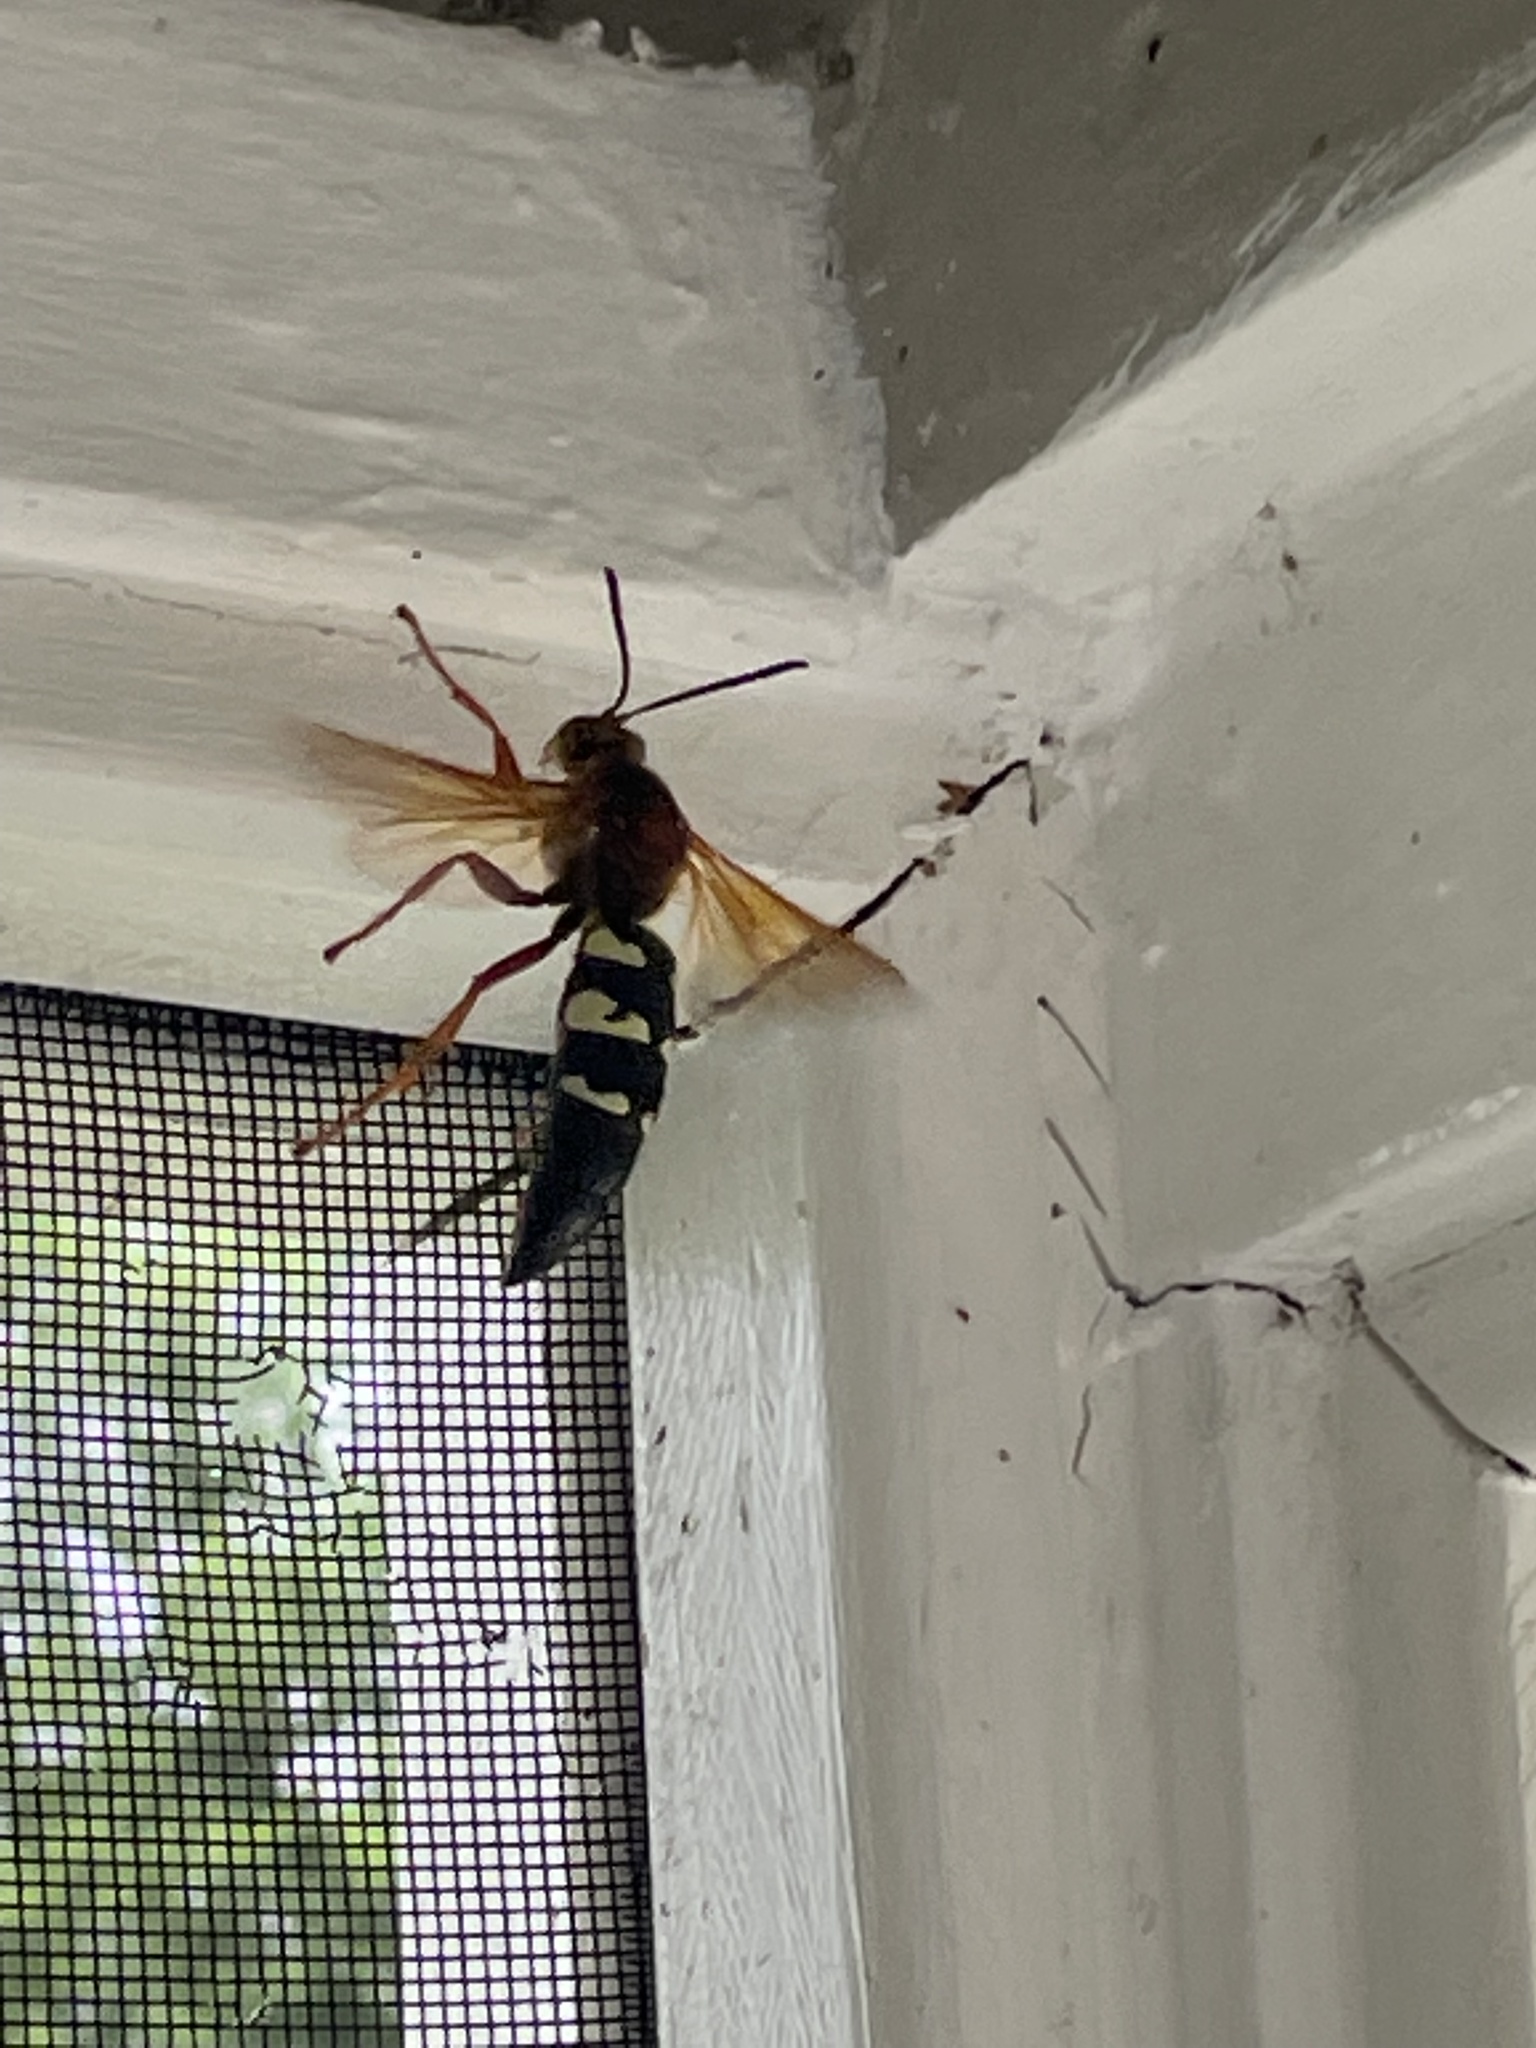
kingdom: Animalia
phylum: Arthropoda
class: Insecta
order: Hymenoptera
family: Crabronidae
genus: Sphecius
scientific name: Sphecius speciosus
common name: Cicada killer
